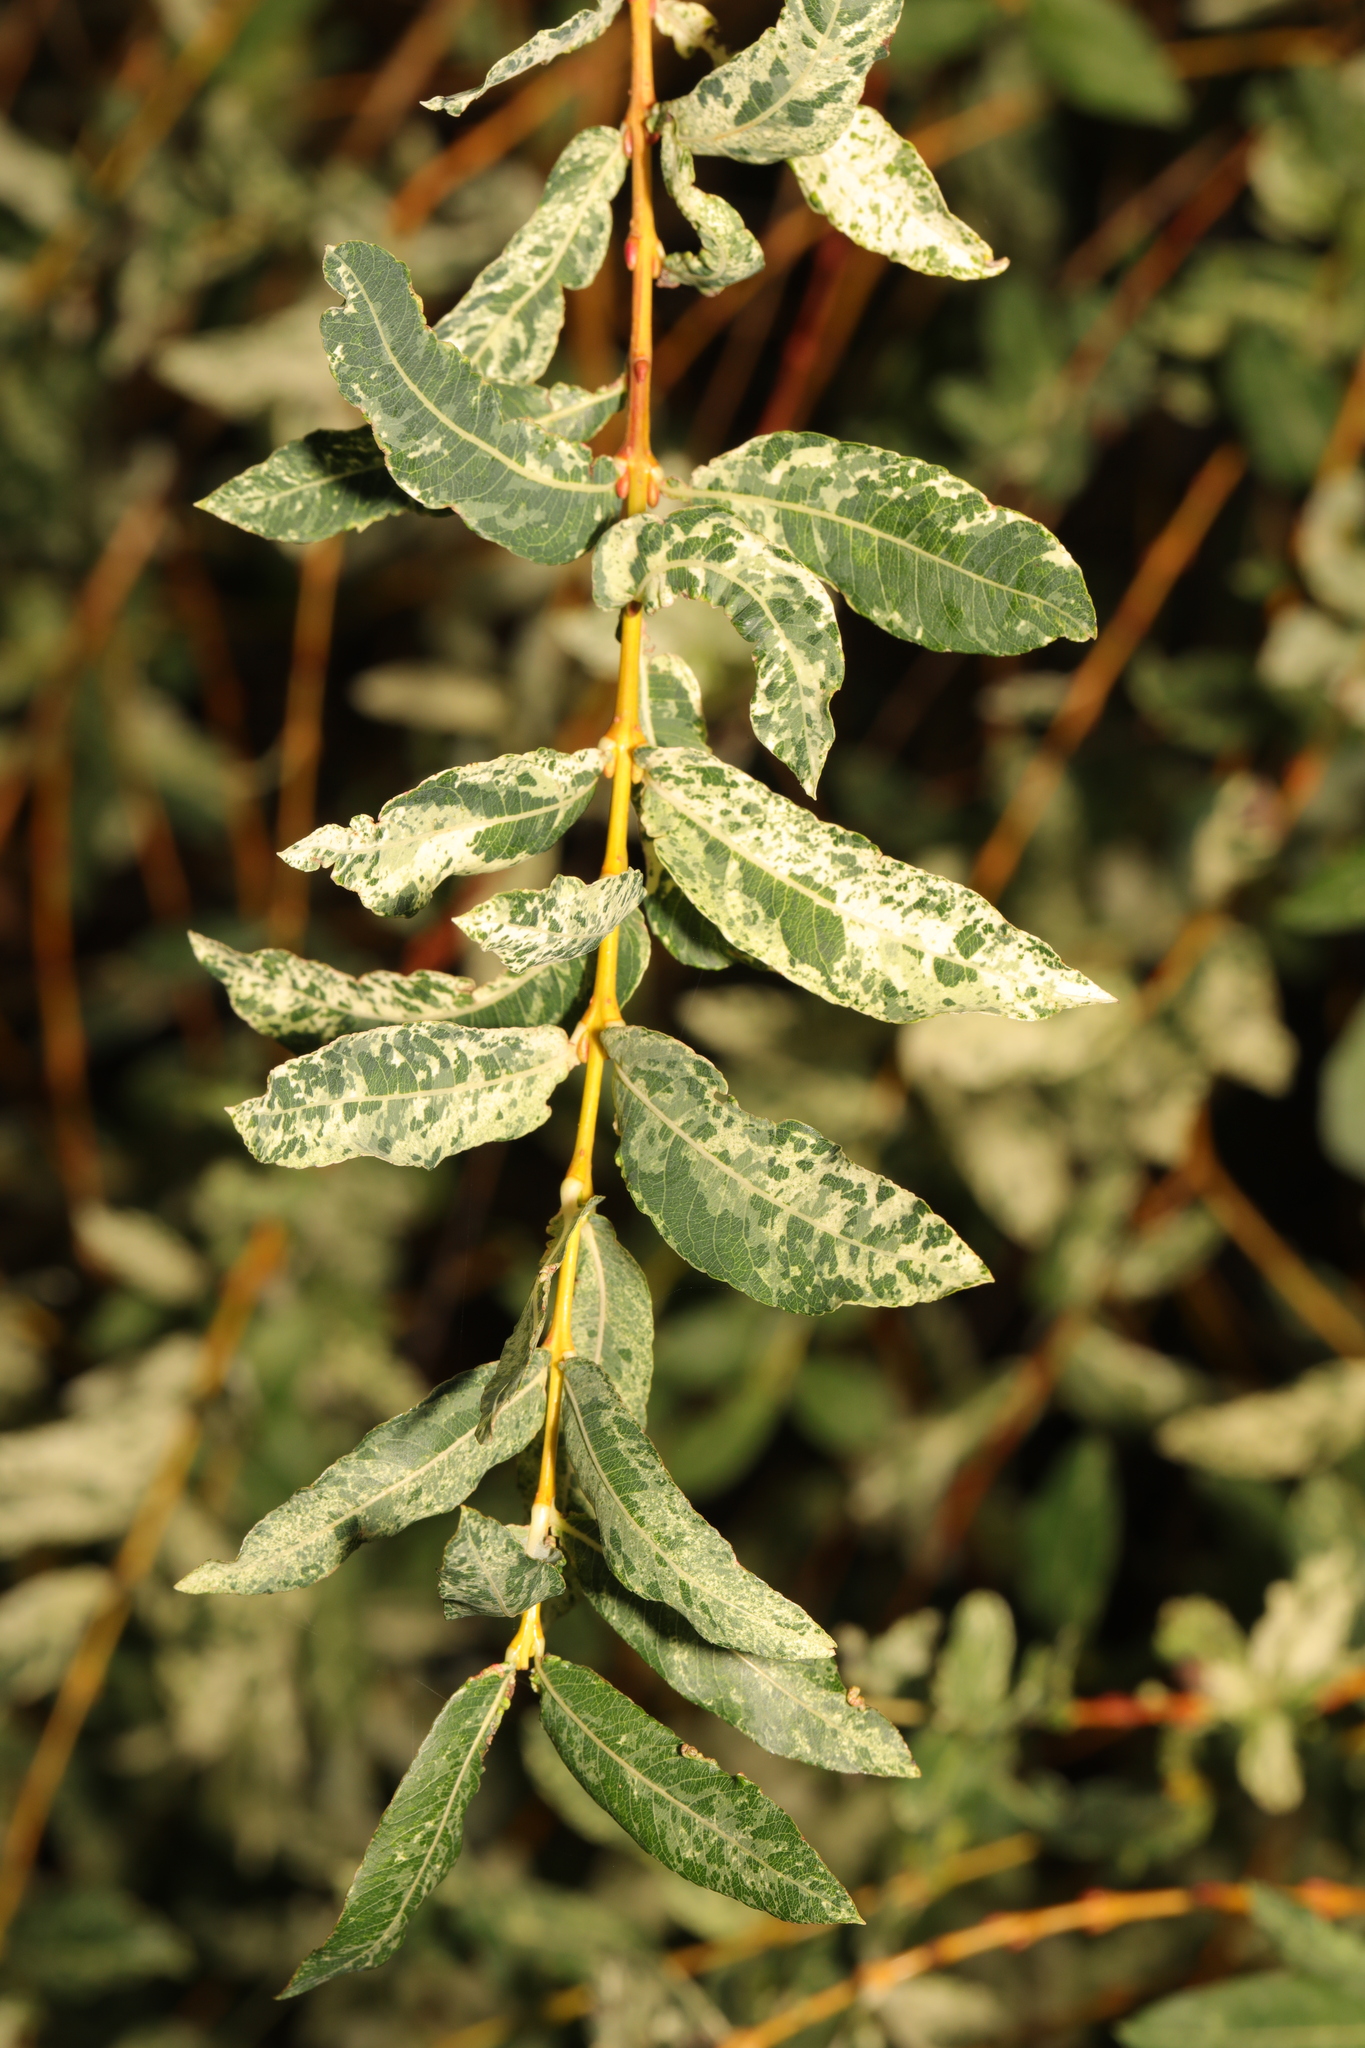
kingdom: Plantae
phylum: Tracheophyta
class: Magnoliopsida
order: Malpighiales
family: Salicaceae
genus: Salix
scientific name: Salix integra
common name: Dappled willow
